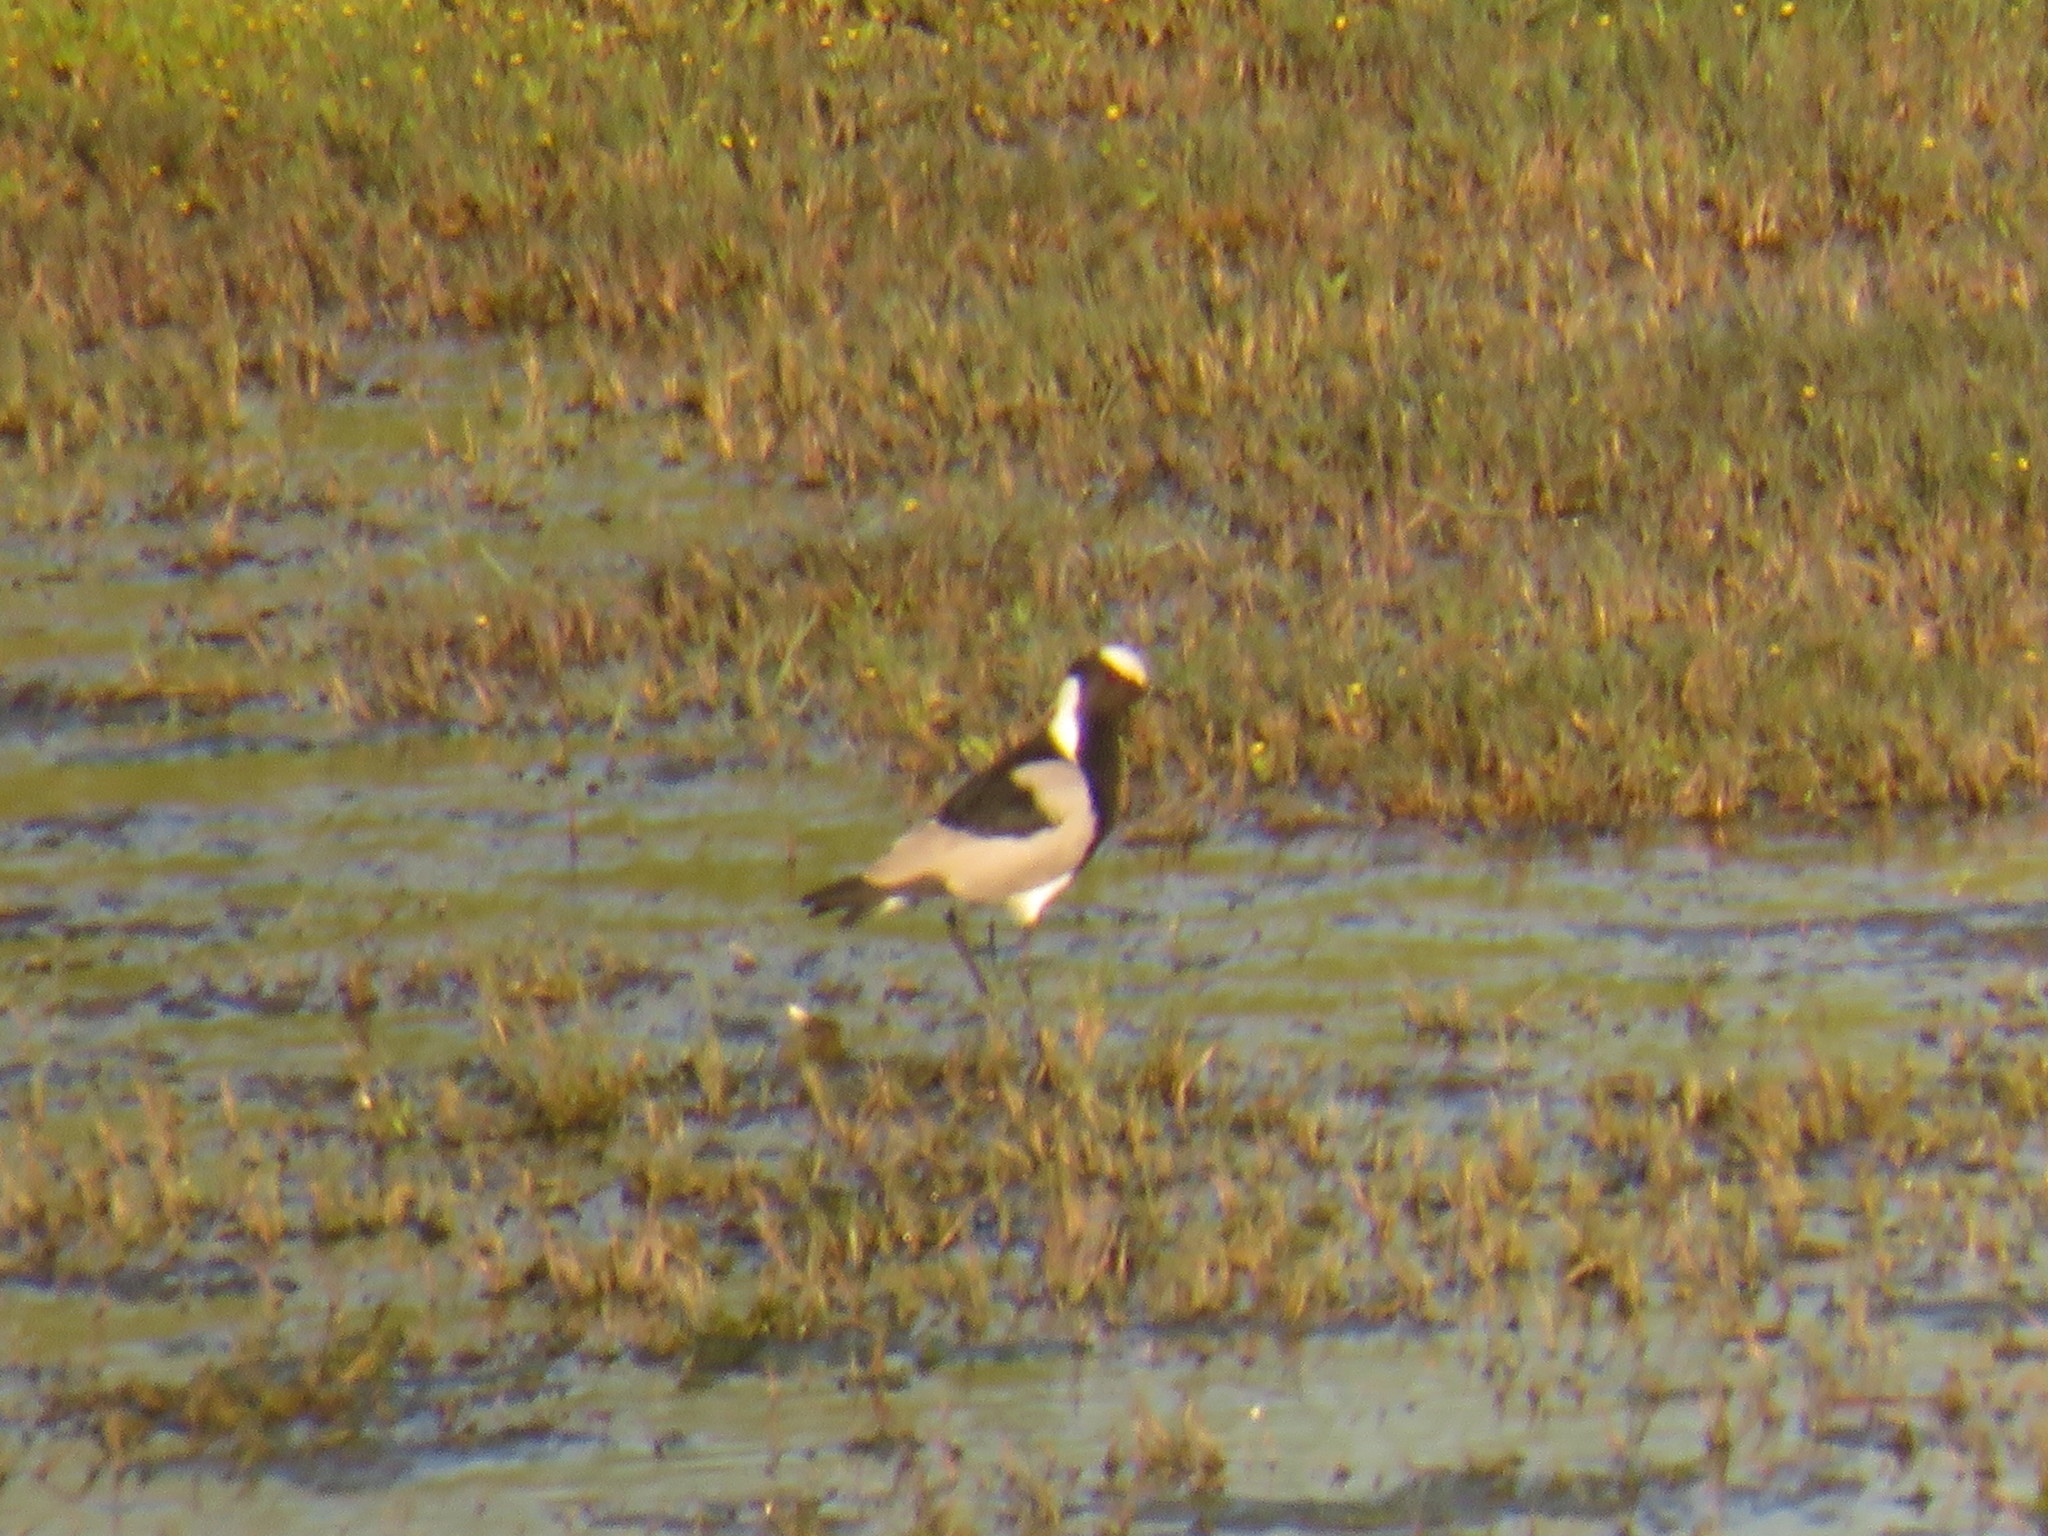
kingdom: Animalia
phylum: Chordata
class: Aves
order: Charadriiformes
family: Charadriidae
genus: Vanellus
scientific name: Vanellus armatus
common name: Blacksmith lapwing
